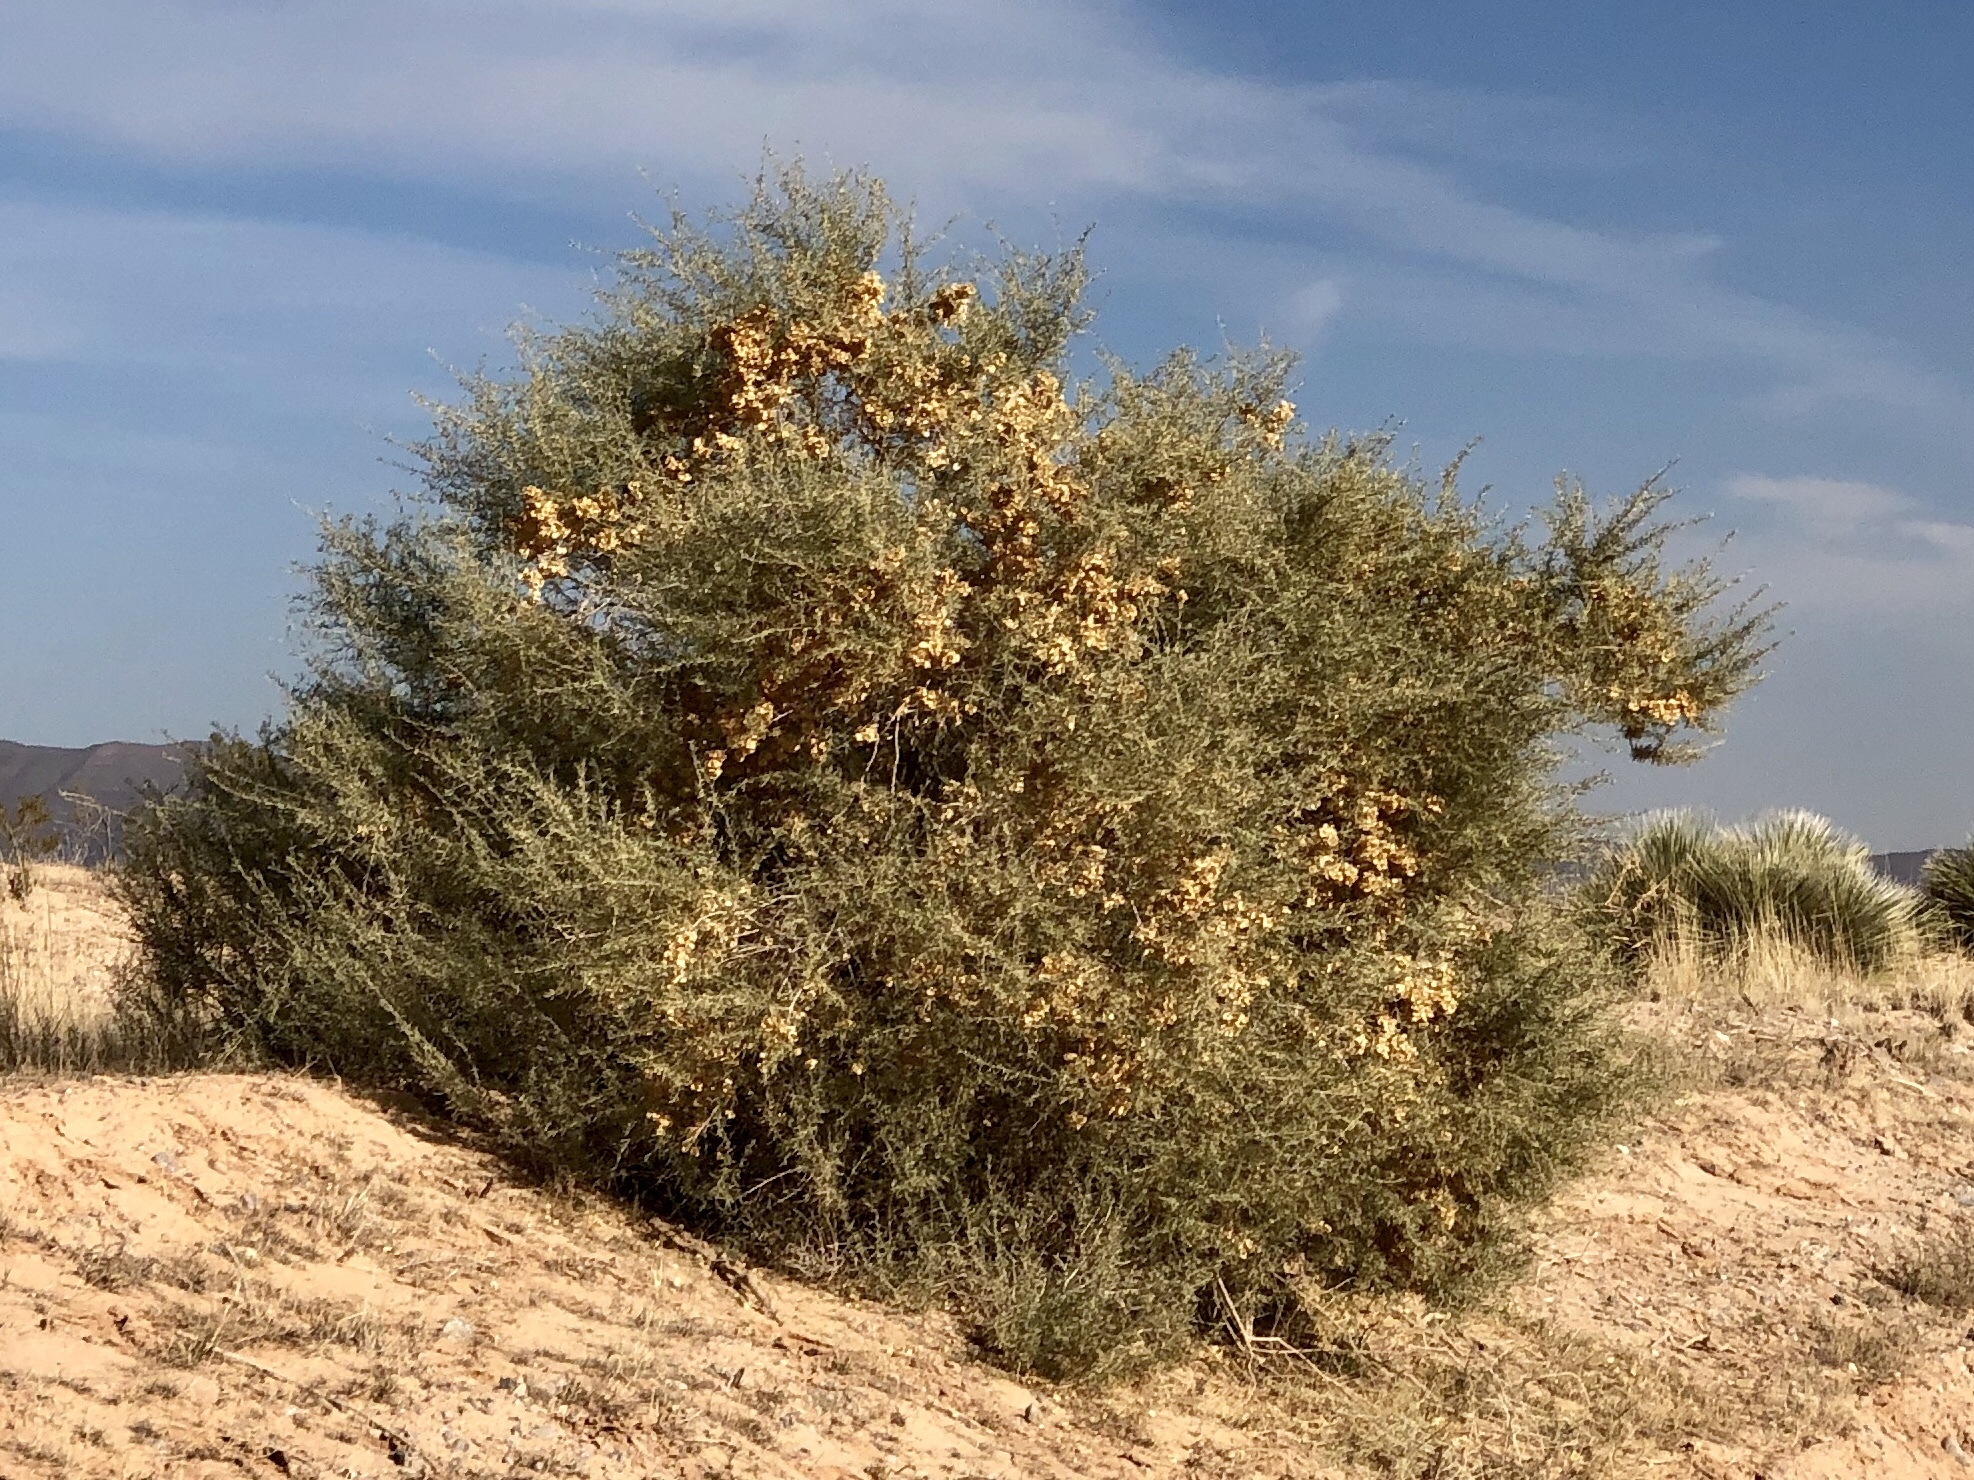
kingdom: Plantae
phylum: Tracheophyta
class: Magnoliopsida
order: Caryophyllales
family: Amaranthaceae
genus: Atriplex
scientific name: Atriplex canescens
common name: Four-wing saltbush
